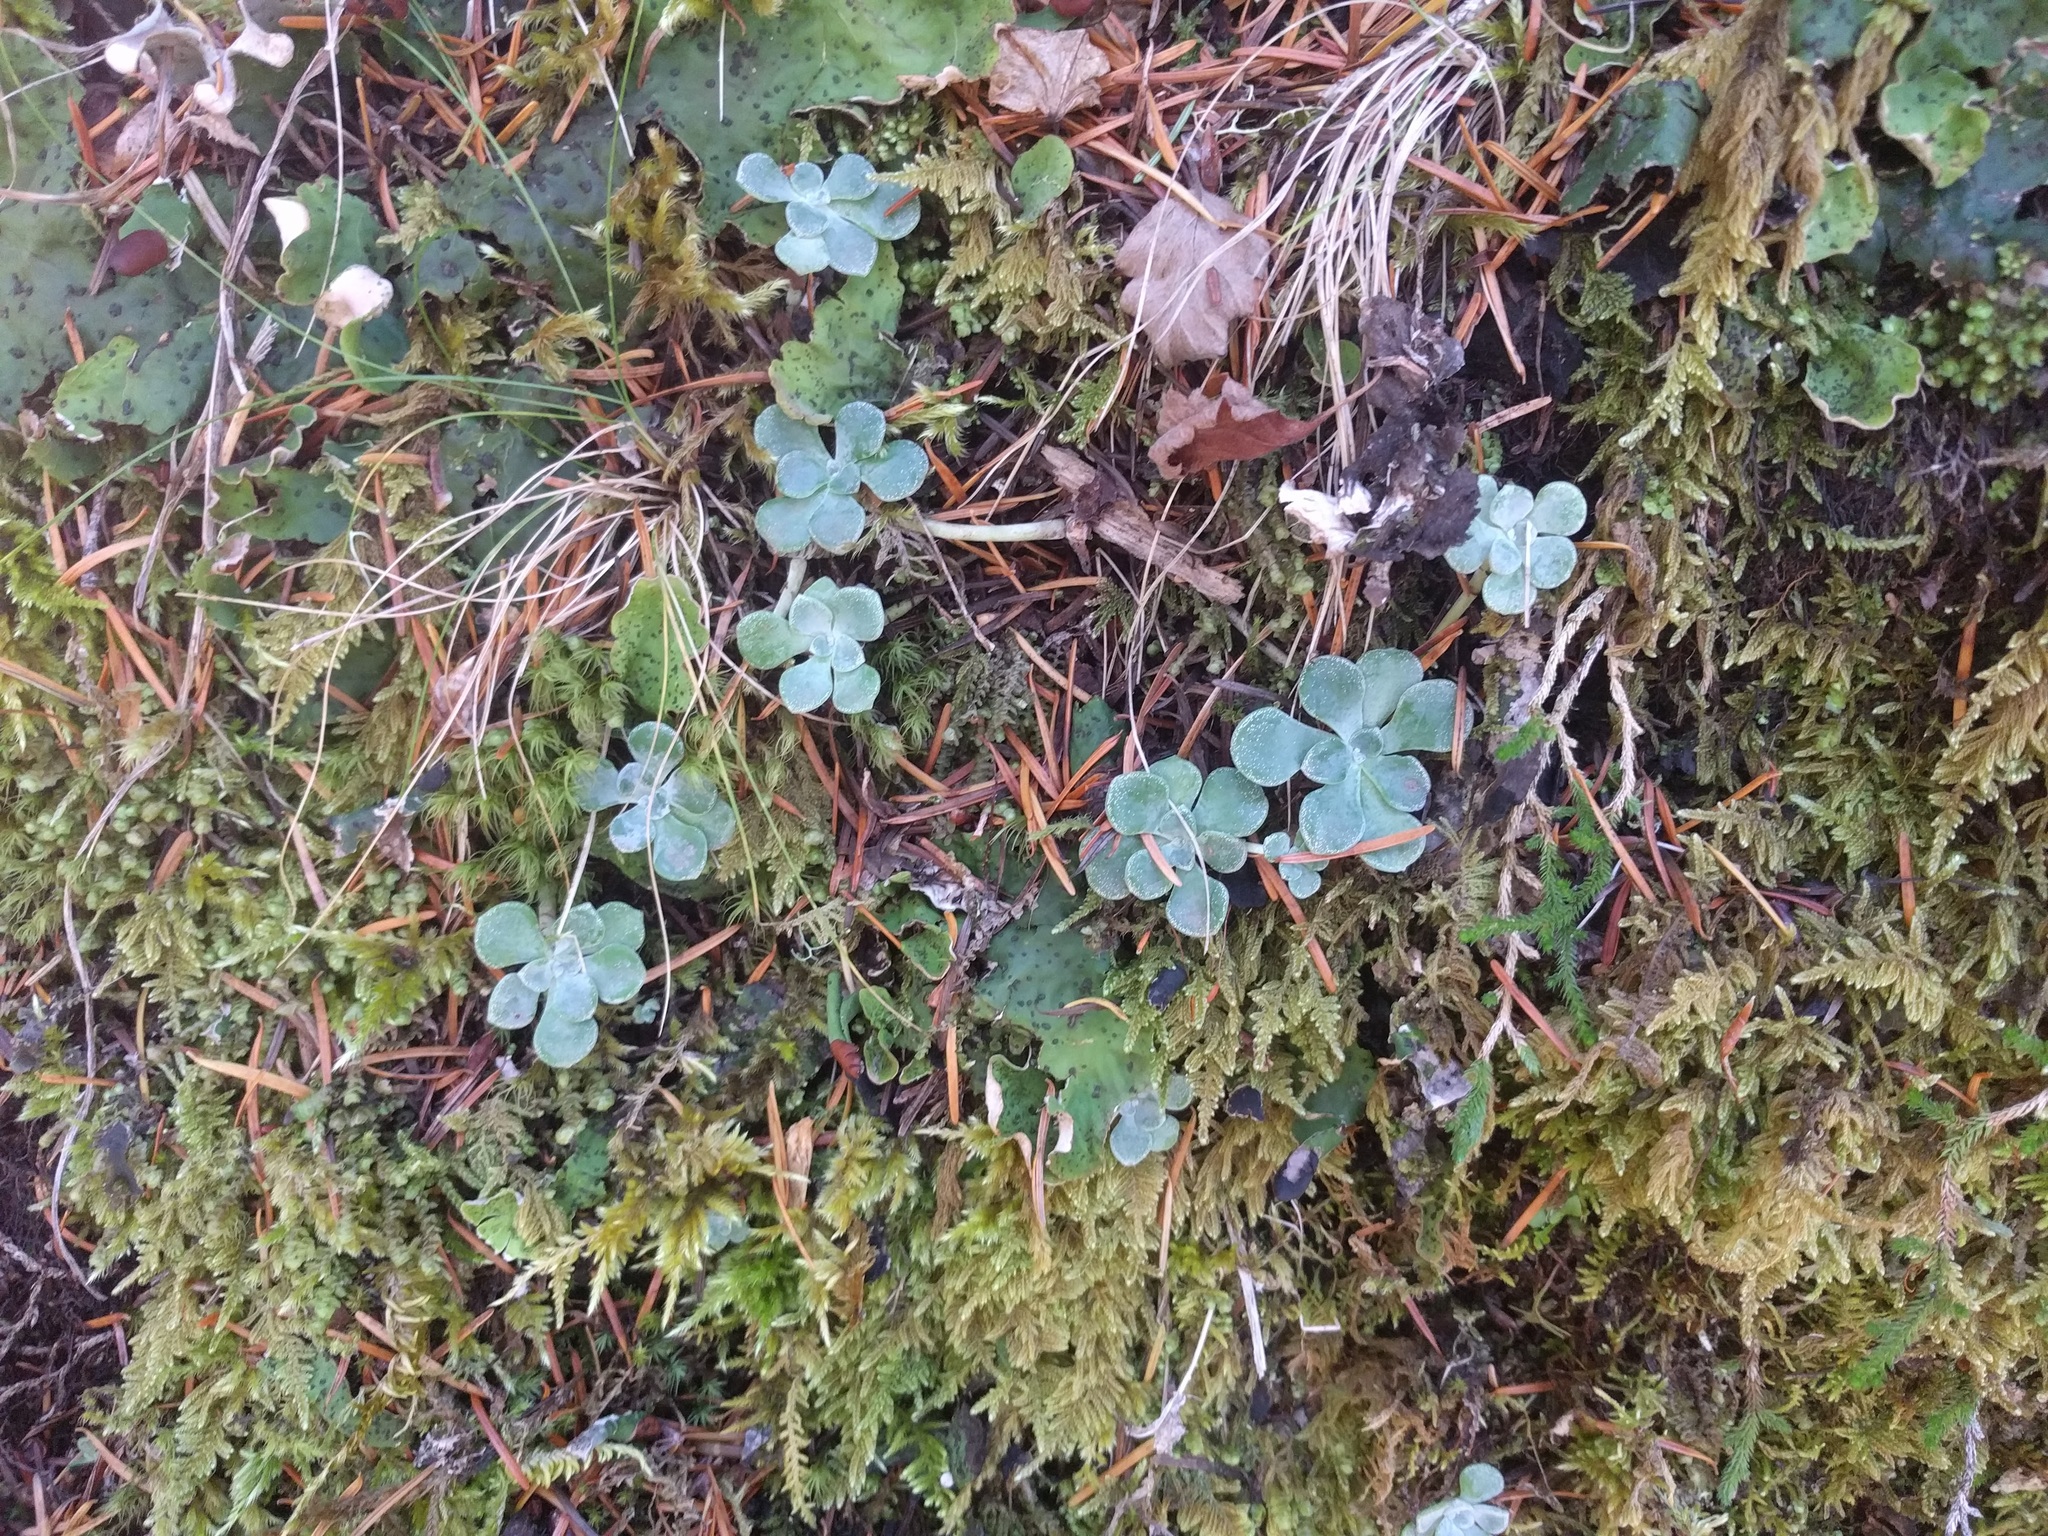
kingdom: Plantae
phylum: Tracheophyta
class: Magnoliopsida
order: Saxifragales
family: Crassulaceae
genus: Sedum
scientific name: Sedum spathulifolium
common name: Colorado stonecrop
